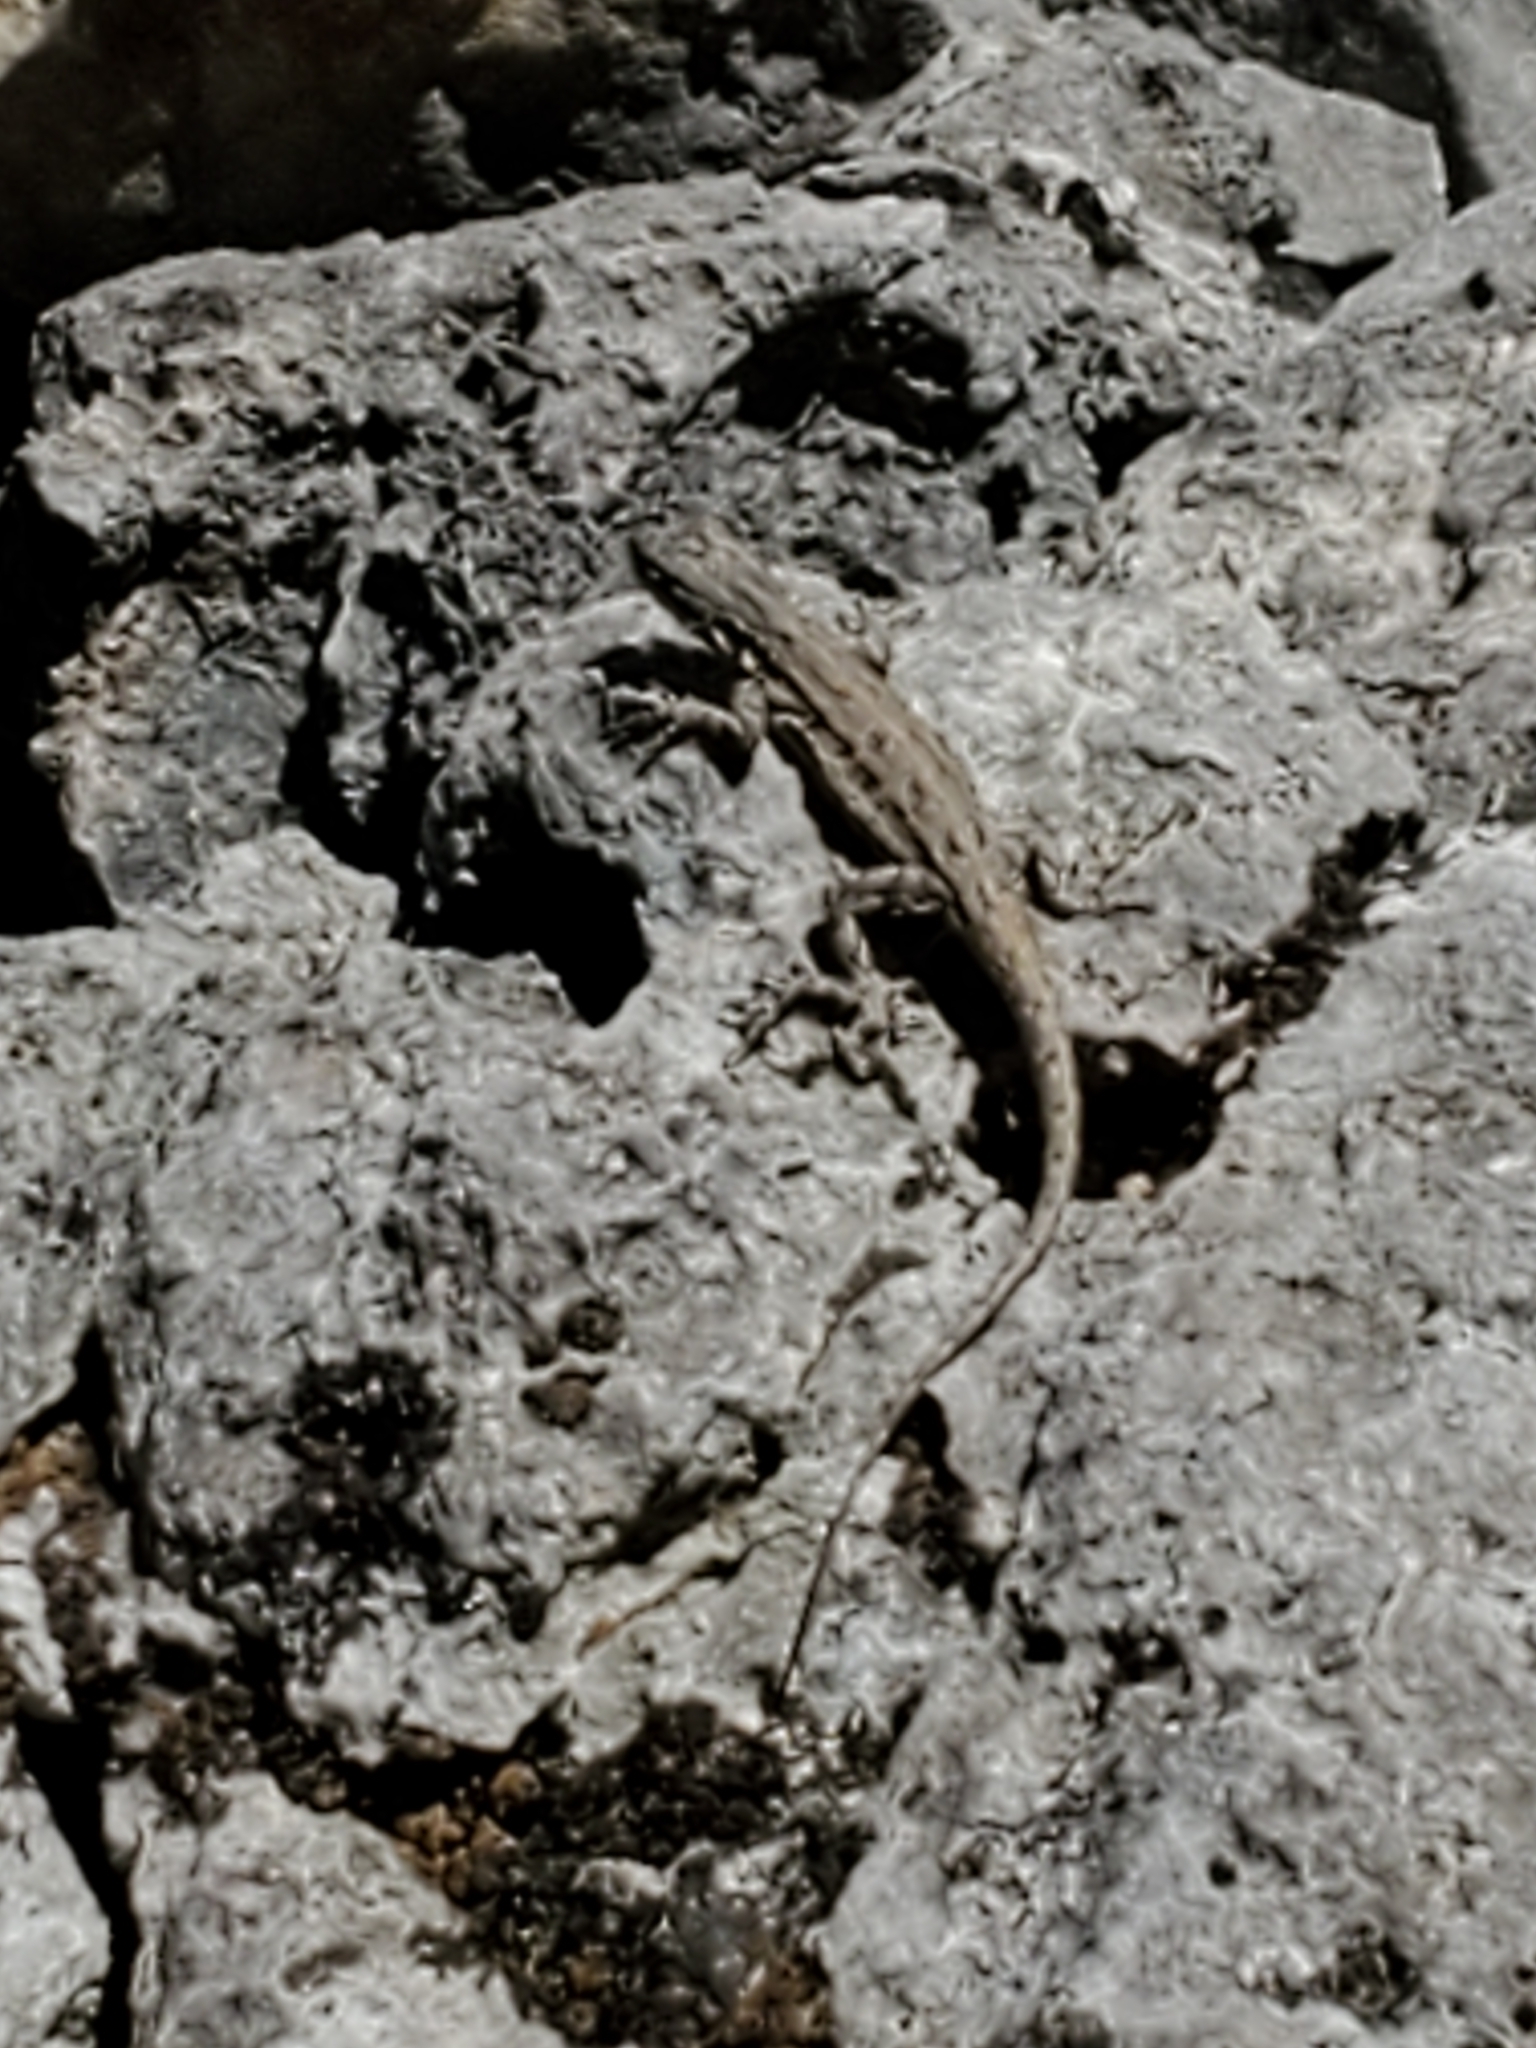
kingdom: Animalia
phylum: Chordata
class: Squamata
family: Phrynosomatidae
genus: Urosaurus
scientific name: Urosaurus ornatus
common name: Ornate tree lizard
